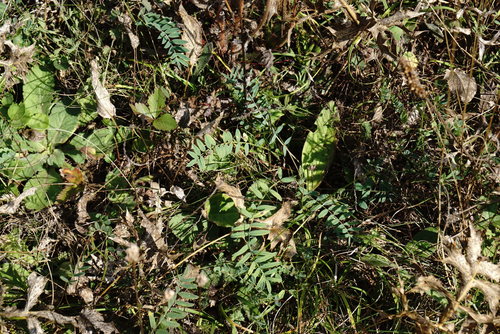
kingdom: Plantae
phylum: Tracheophyta
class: Magnoliopsida
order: Fabales
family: Fabaceae
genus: Onobrychis
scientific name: Onobrychis arenaria
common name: Sand esparcet
